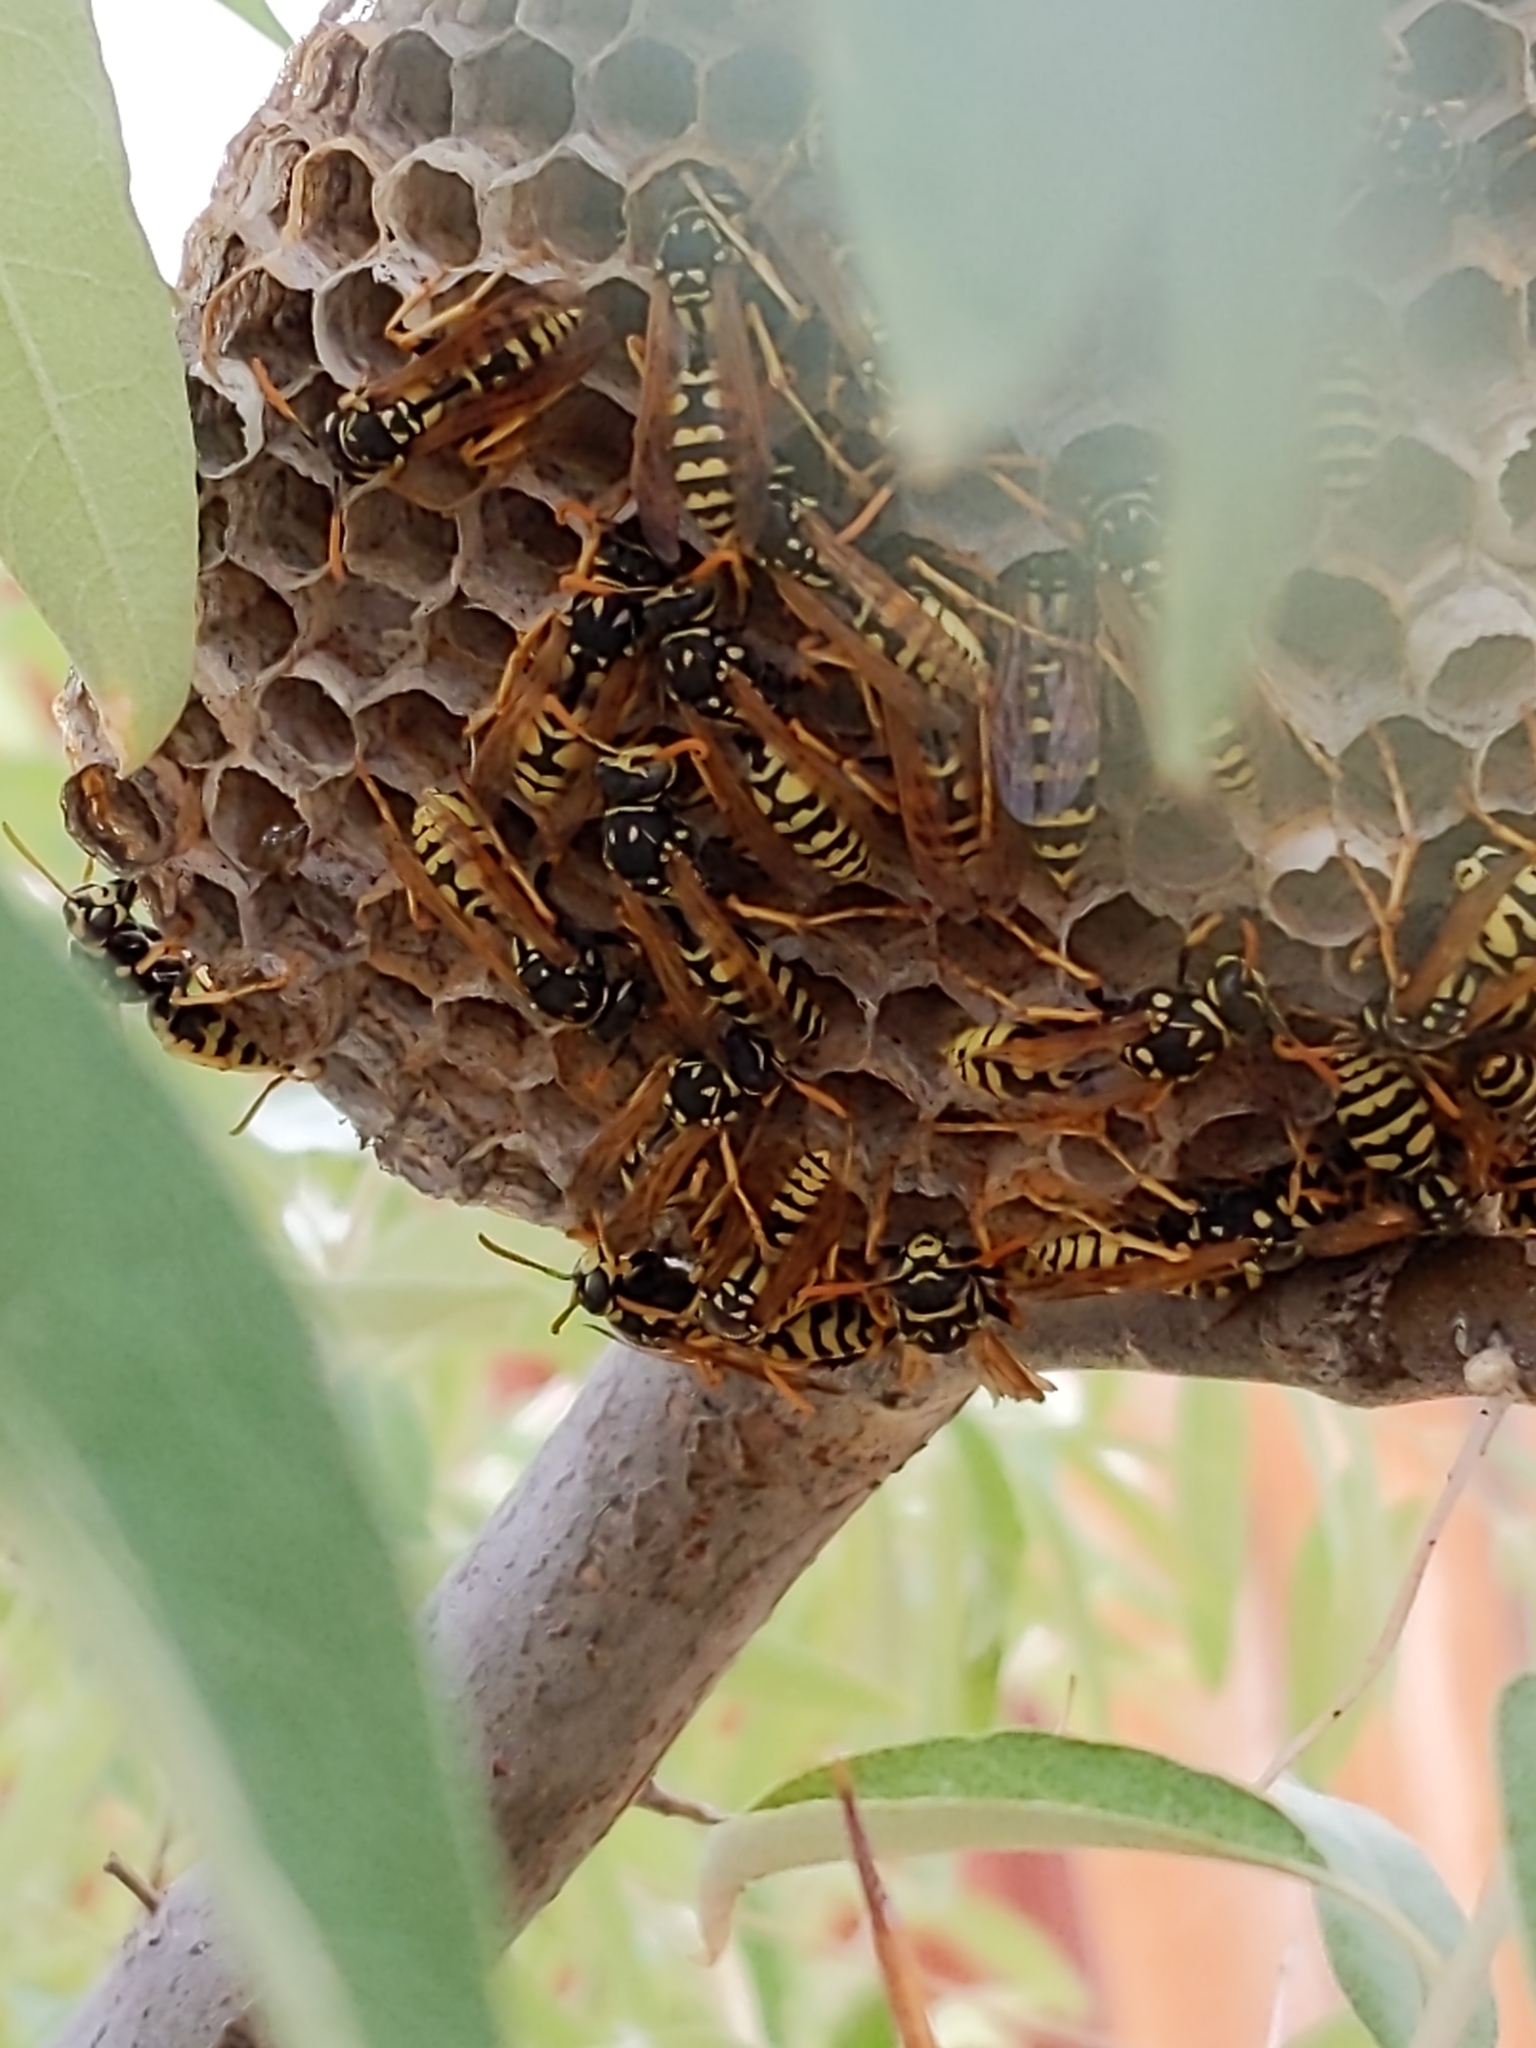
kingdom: Animalia
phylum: Arthropoda
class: Insecta
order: Hymenoptera
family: Eumenidae
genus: Polistes
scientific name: Polistes dominula
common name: Paper wasp
